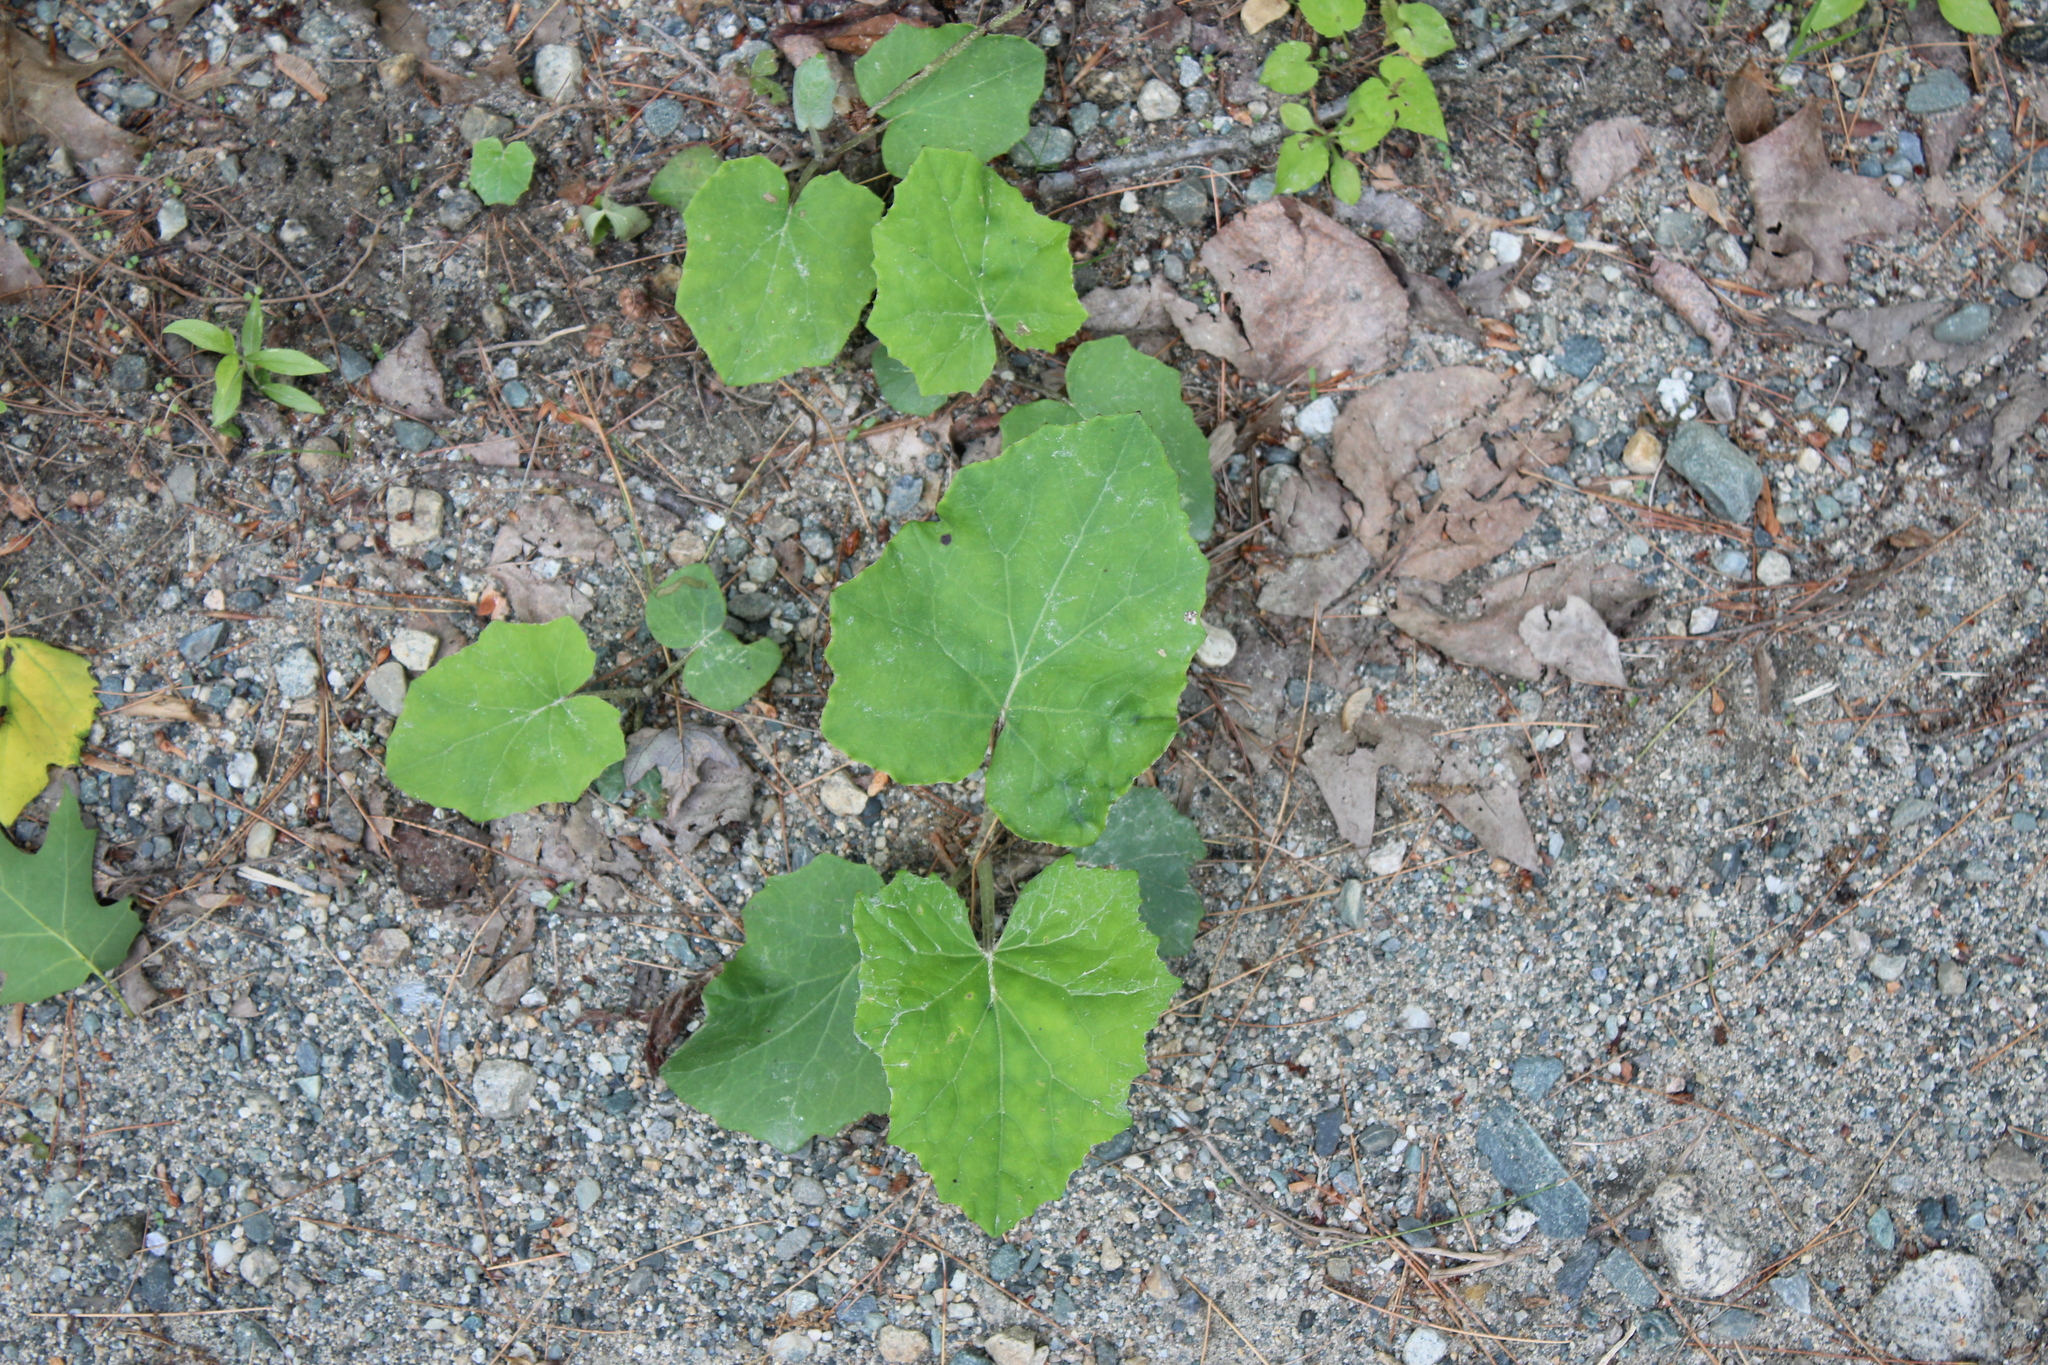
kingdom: Plantae
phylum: Tracheophyta
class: Magnoliopsida
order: Asterales
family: Asteraceae
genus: Tussilago
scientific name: Tussilago farfara
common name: Coltsfoot
